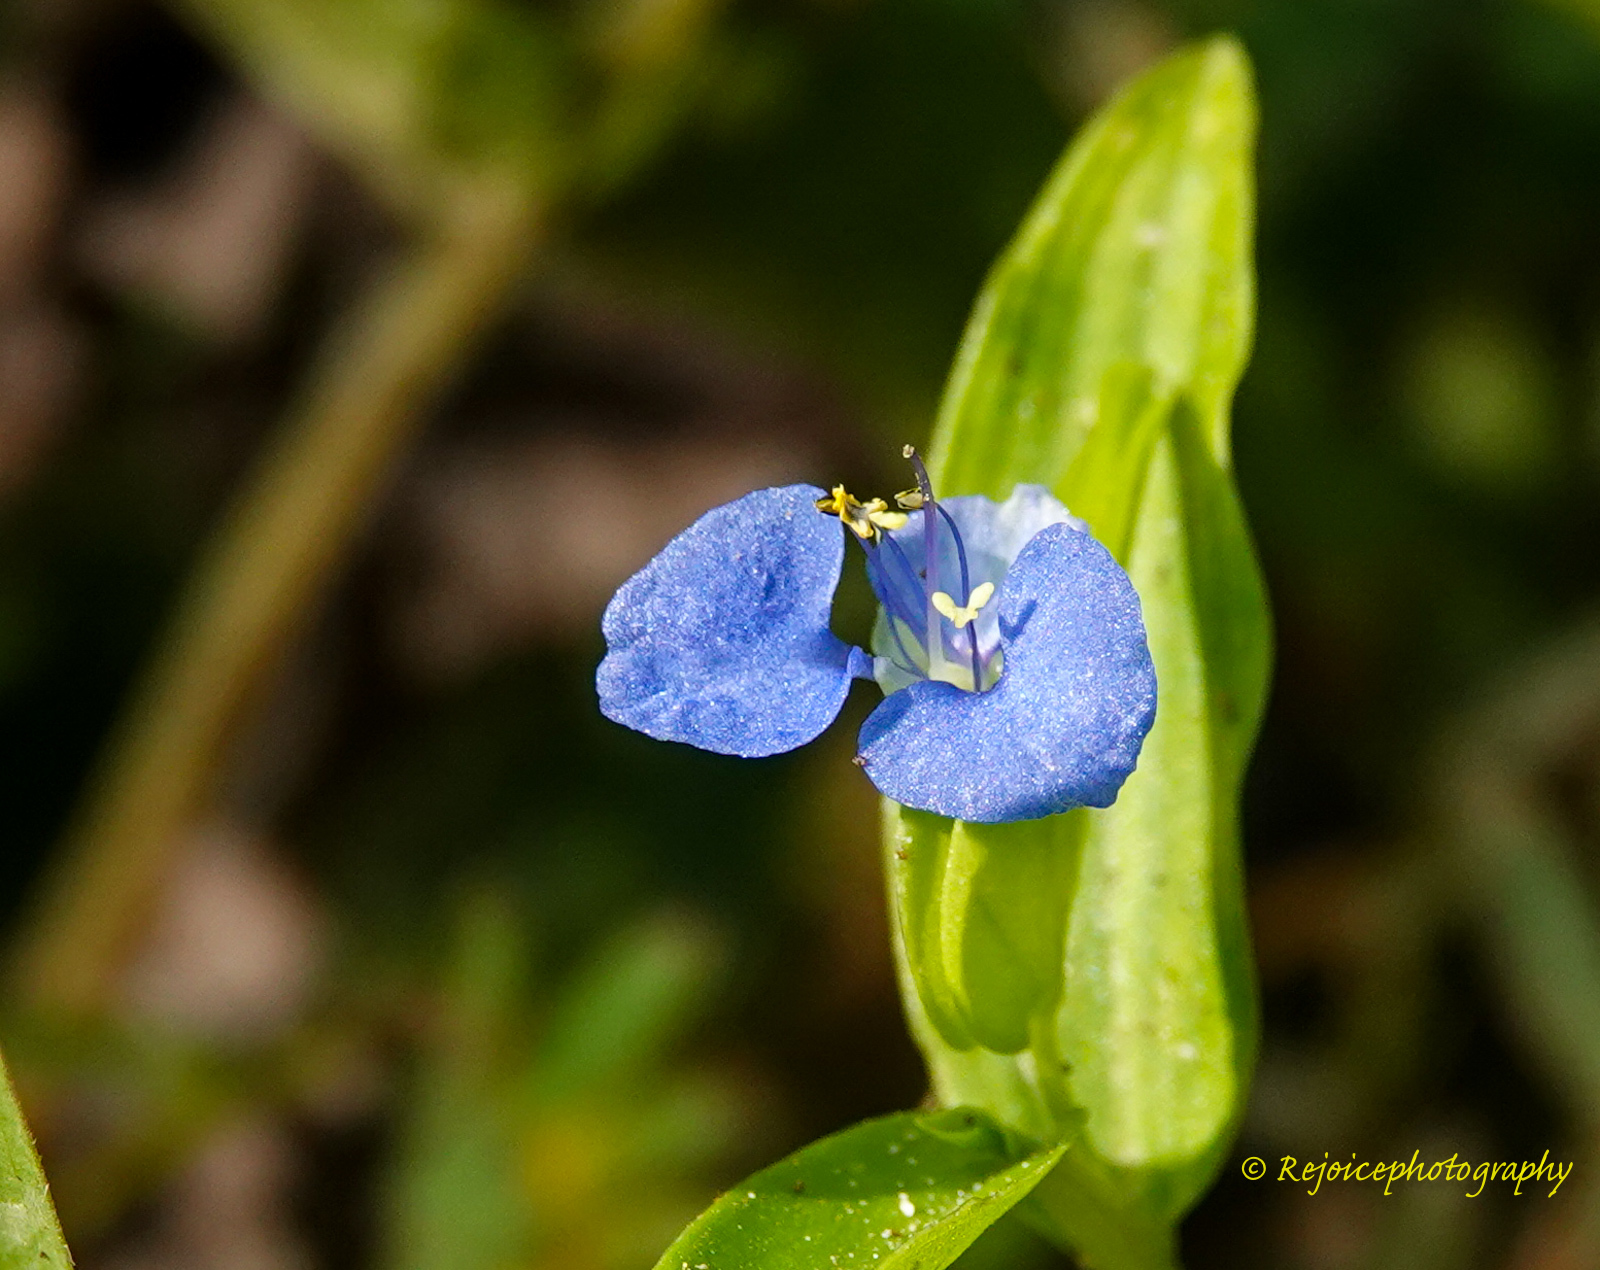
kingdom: Plantae
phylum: Tracheophyta
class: Liliopsida
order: Commelinales
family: Commelinaceae
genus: Commelina
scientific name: Commelina diffusa
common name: Climbing dayflower
